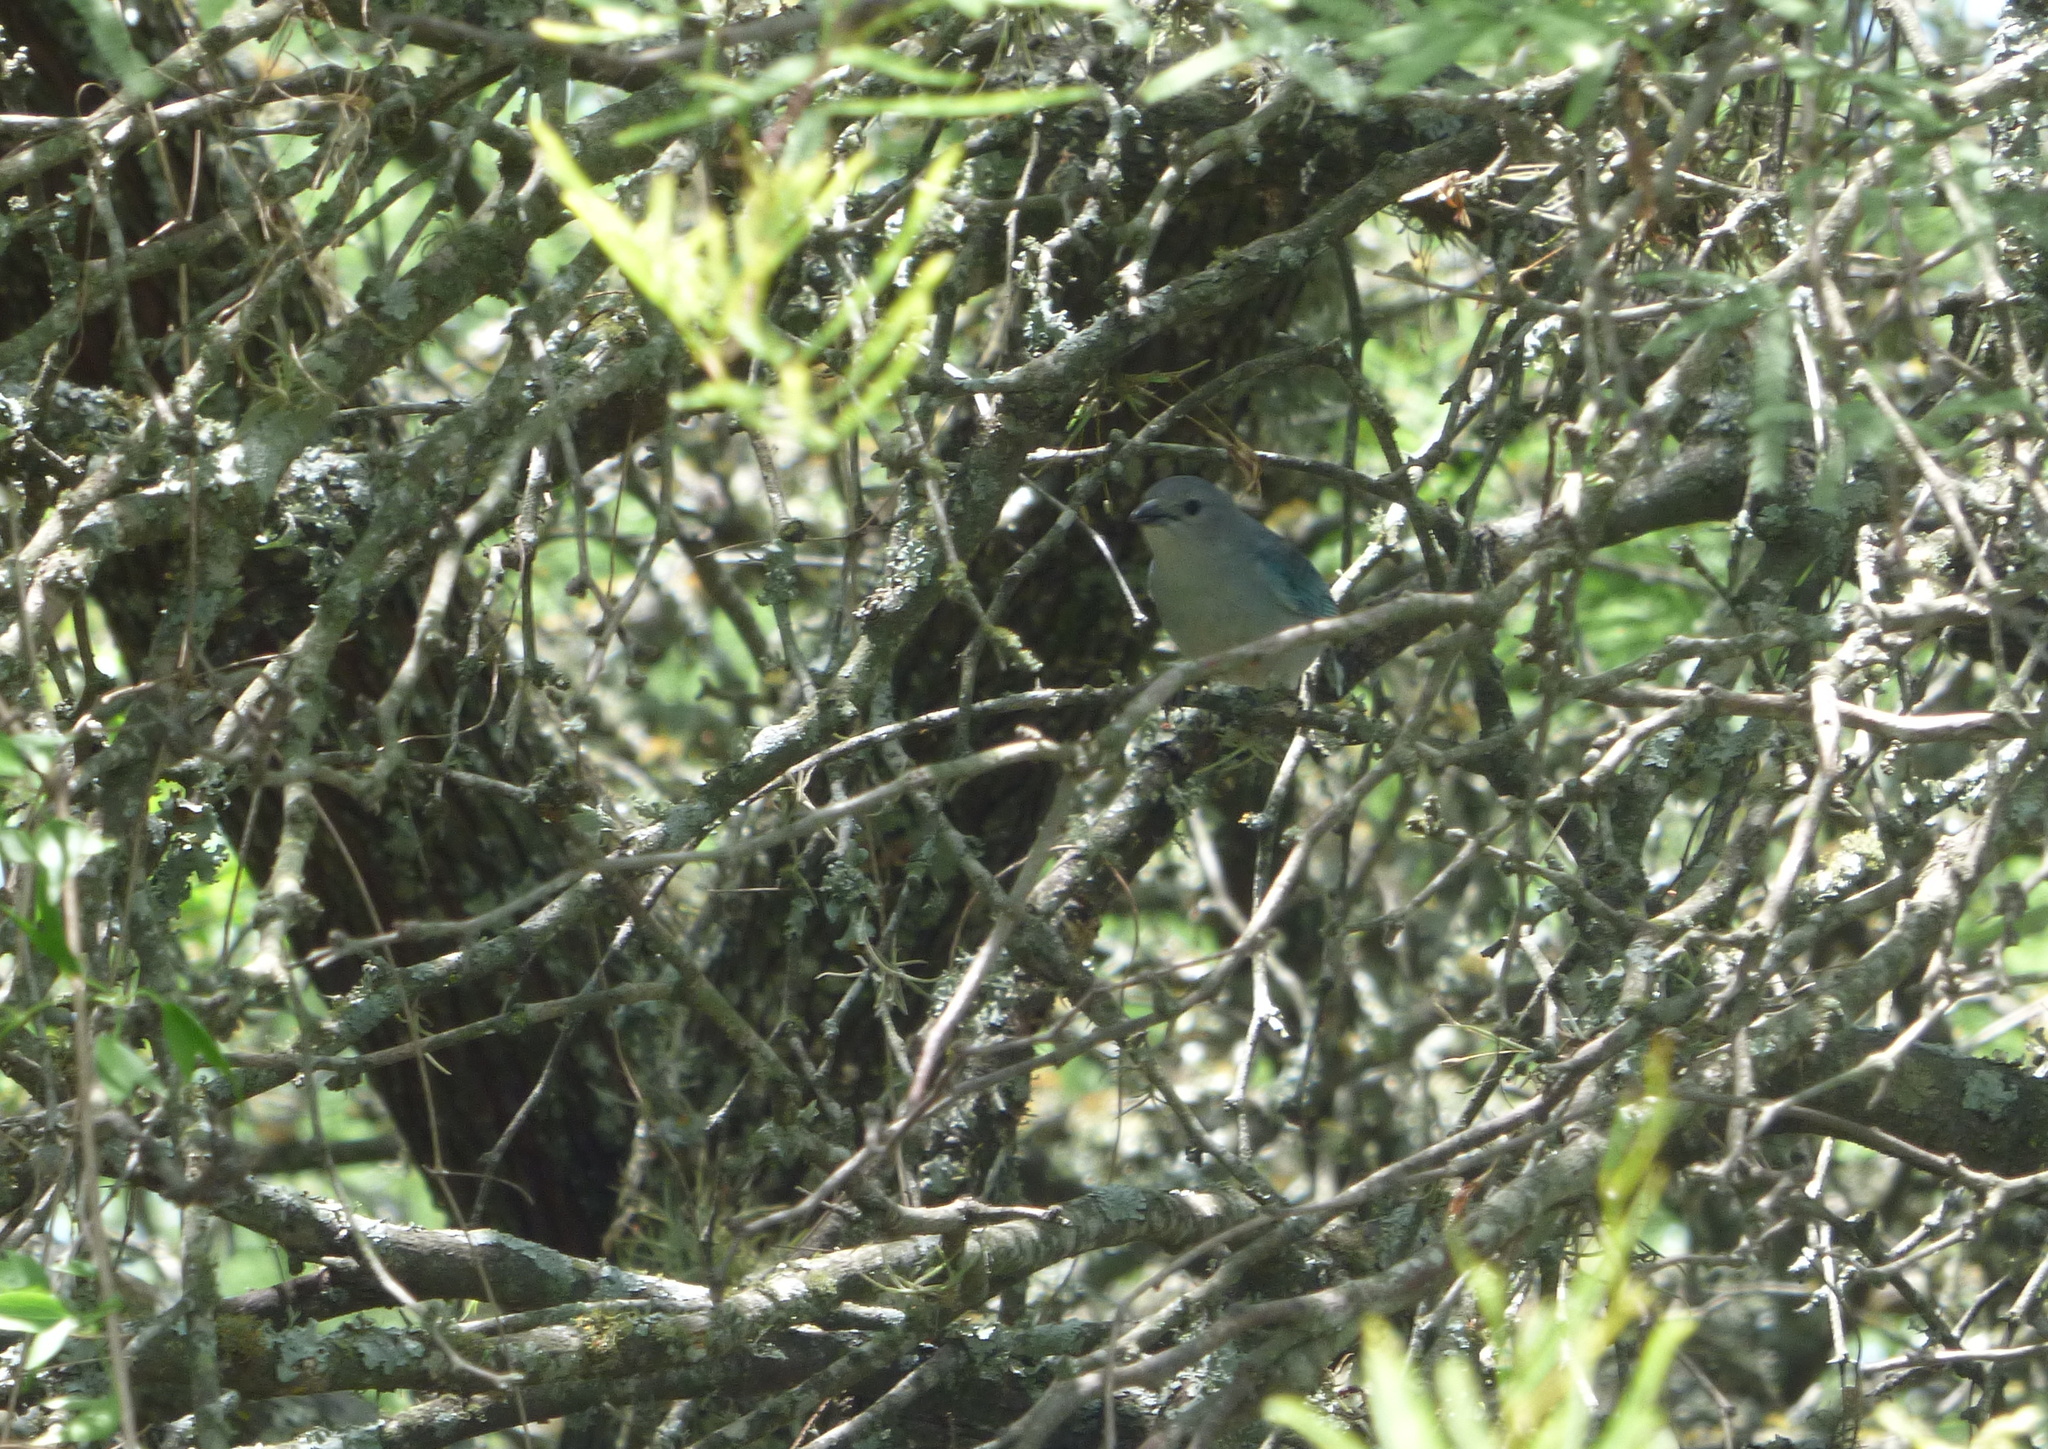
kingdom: Animalia
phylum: Chordata
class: Aves
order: Passeriformes
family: Thraupidae
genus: Thraupis
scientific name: Thraupis sayaca
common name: Sayaca tanager
